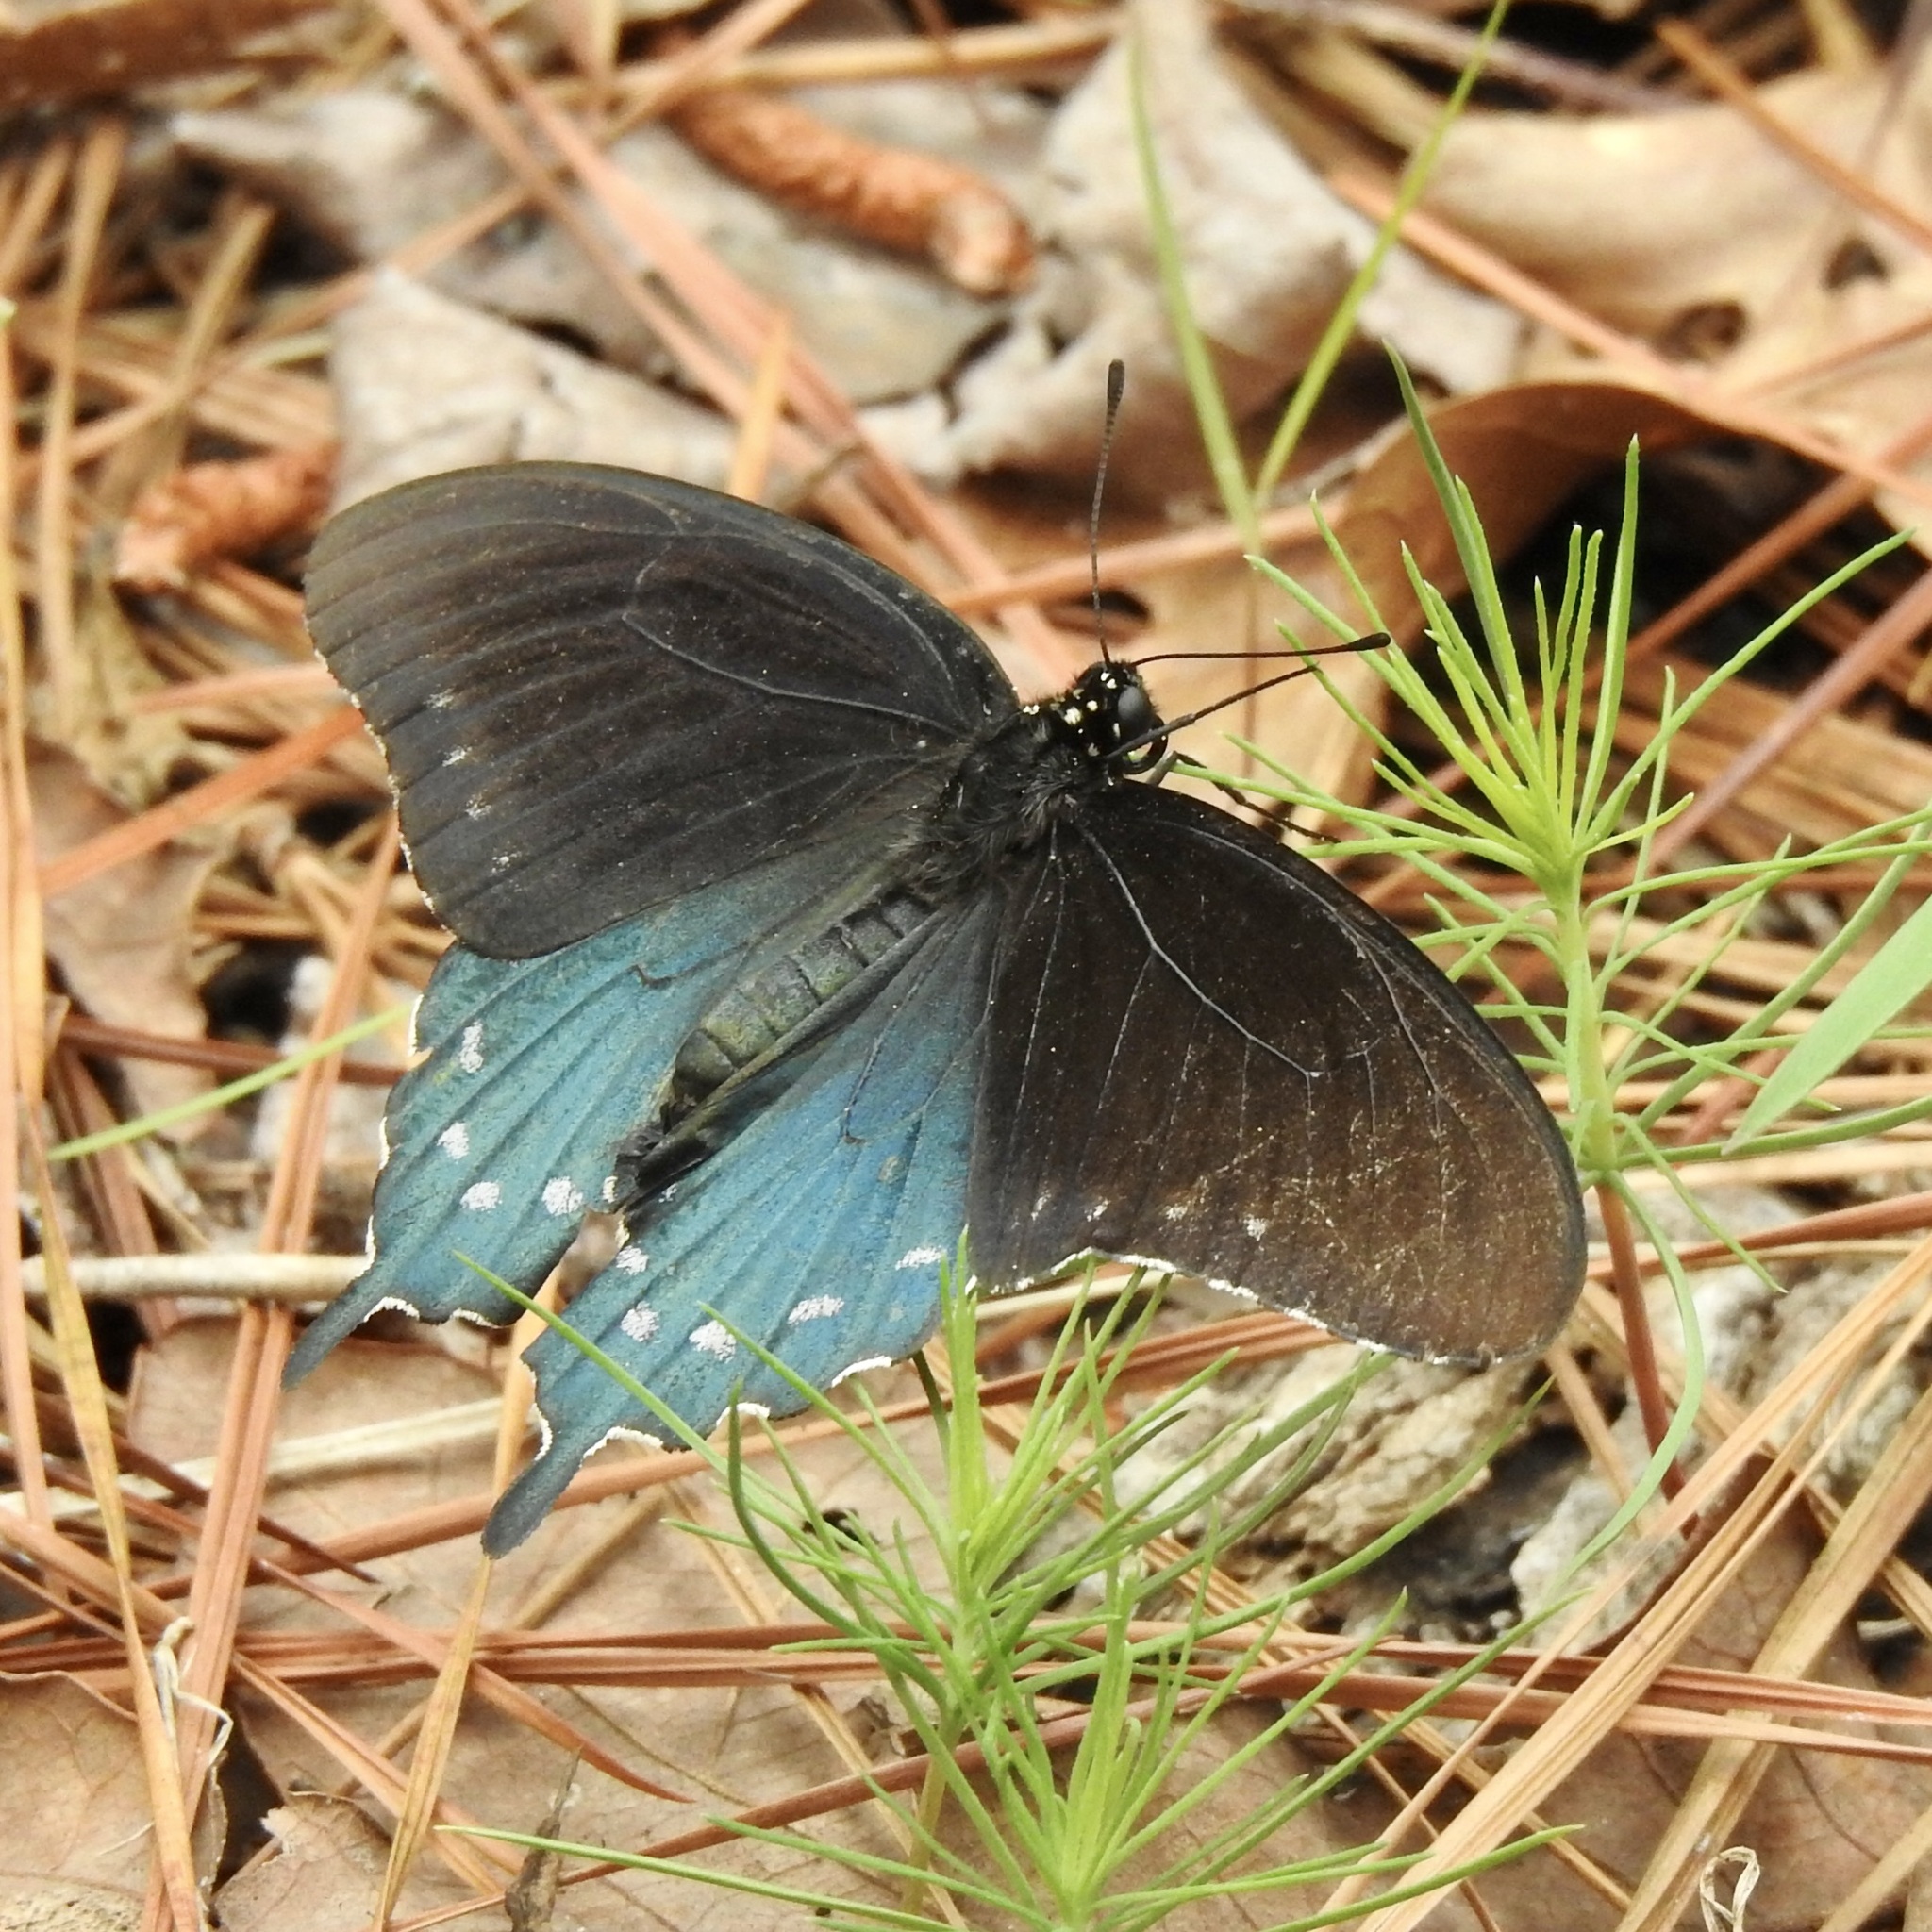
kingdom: Animalia
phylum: Arthropoda
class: Insecta
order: Lepidoptera
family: Papilionidae
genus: Battus
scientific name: Battus philenor
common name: Pipevine swallowtail
